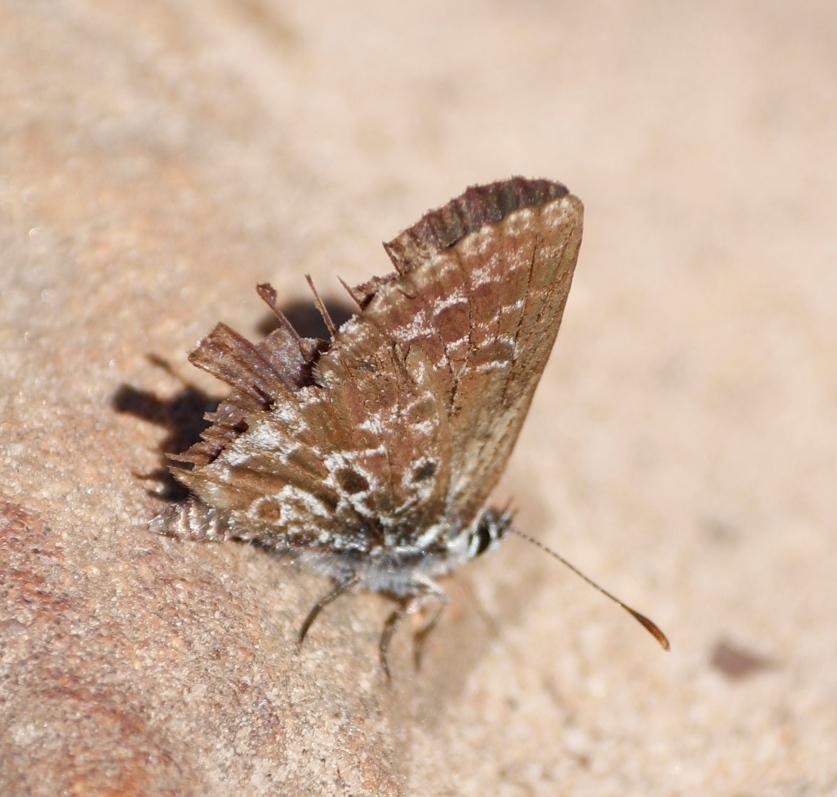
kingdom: Animalia
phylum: Arthropoda
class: Insecta
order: Lepidoptera
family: Lycaenidae
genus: Lepidochrysops
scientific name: Lepidochrysops
